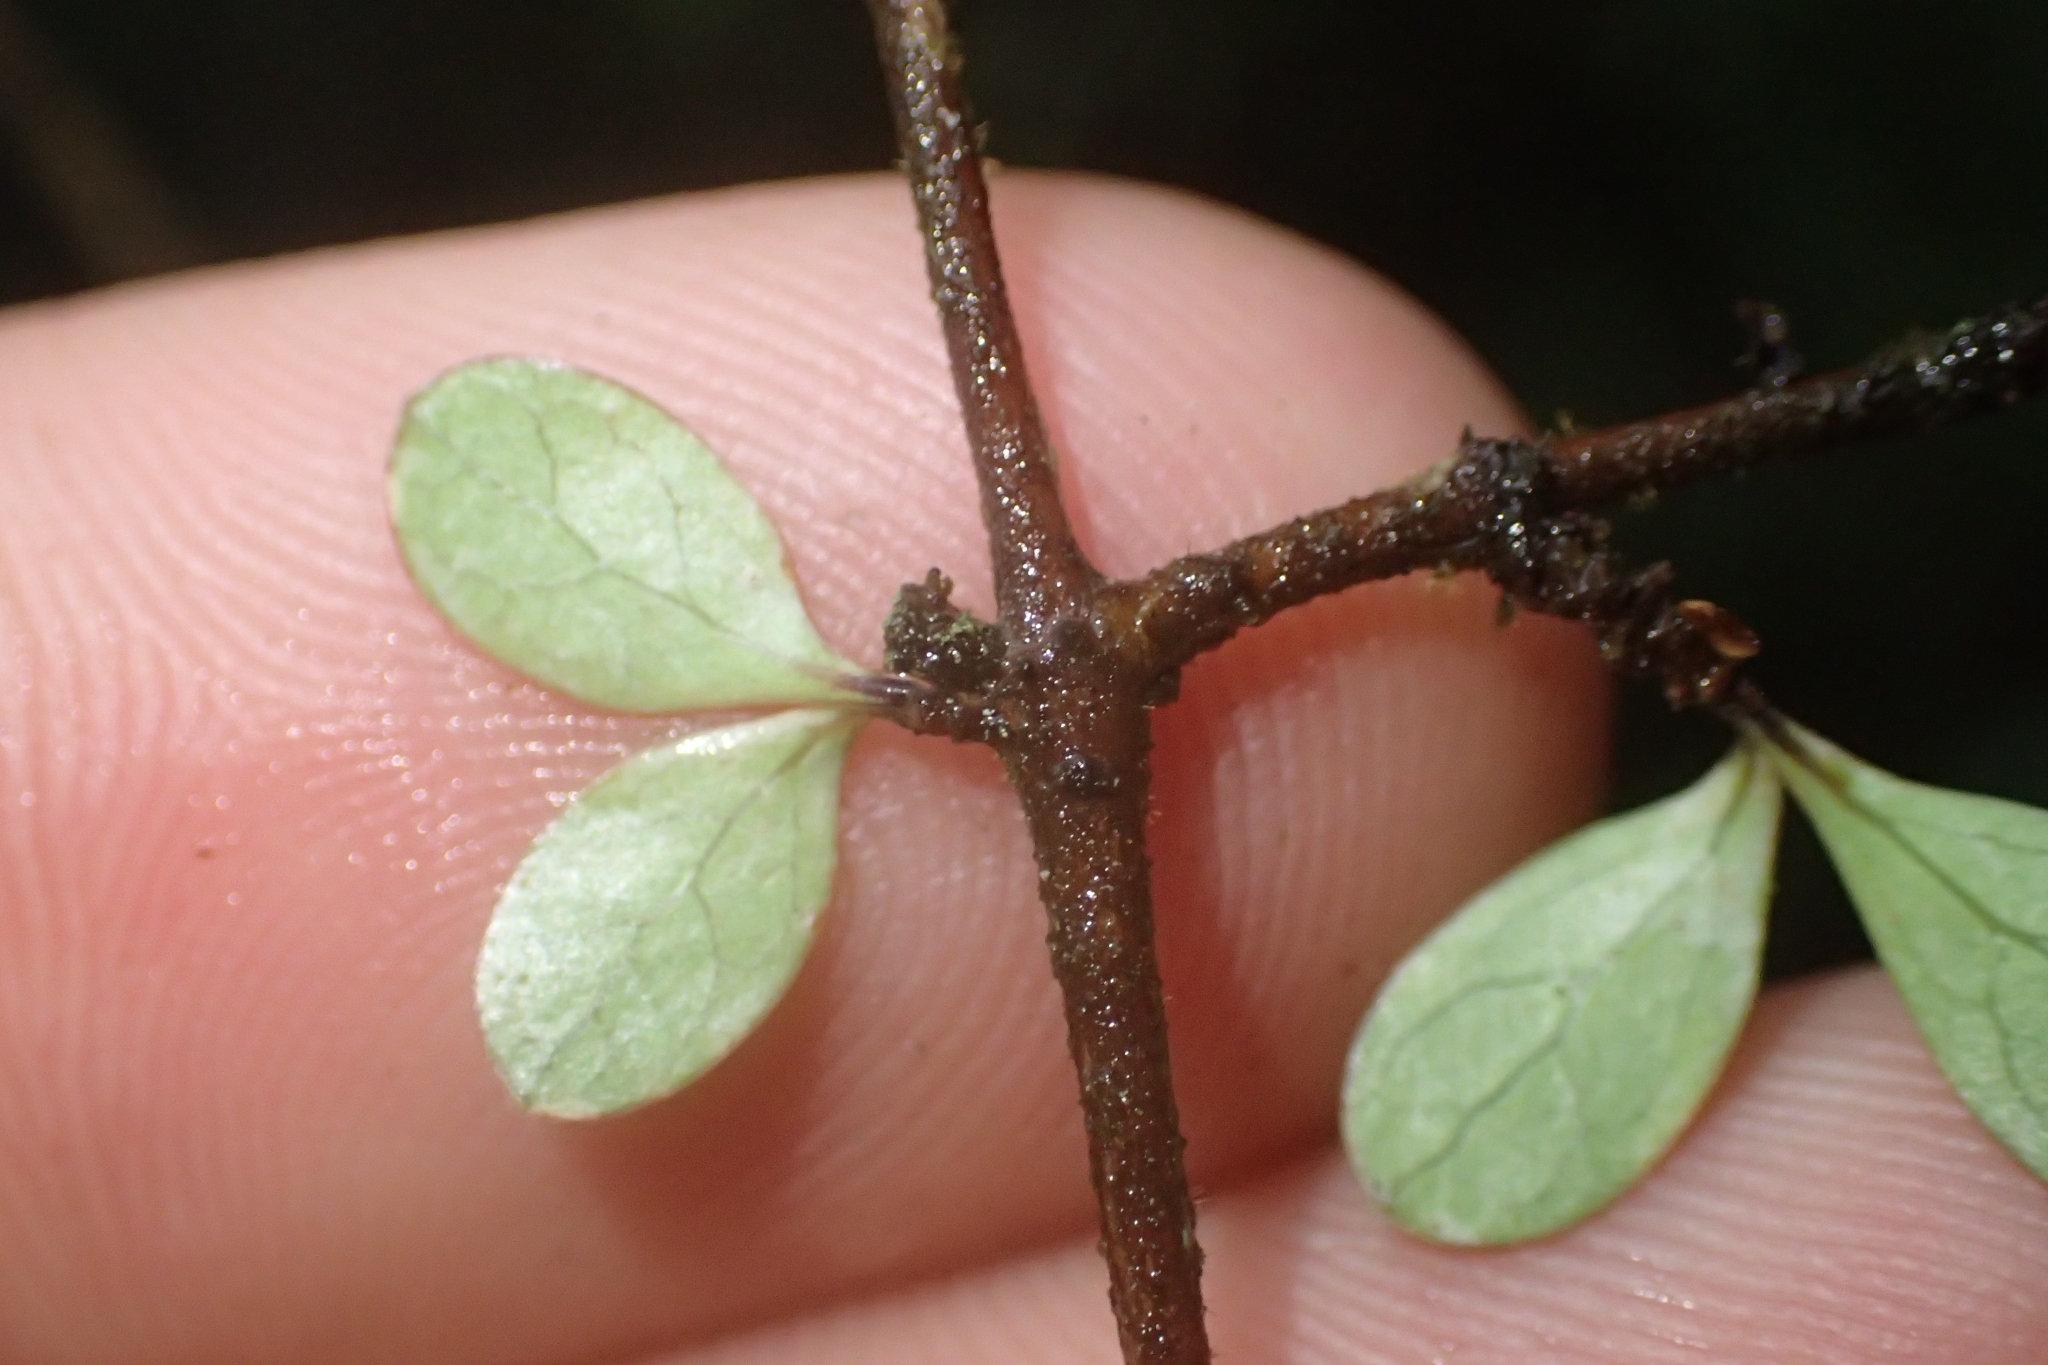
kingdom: Plantae
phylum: Tracheophyta
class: Magnoliopsida
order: Gentianales
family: Rubiaceae
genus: Coprosma
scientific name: Coprosma rigida
